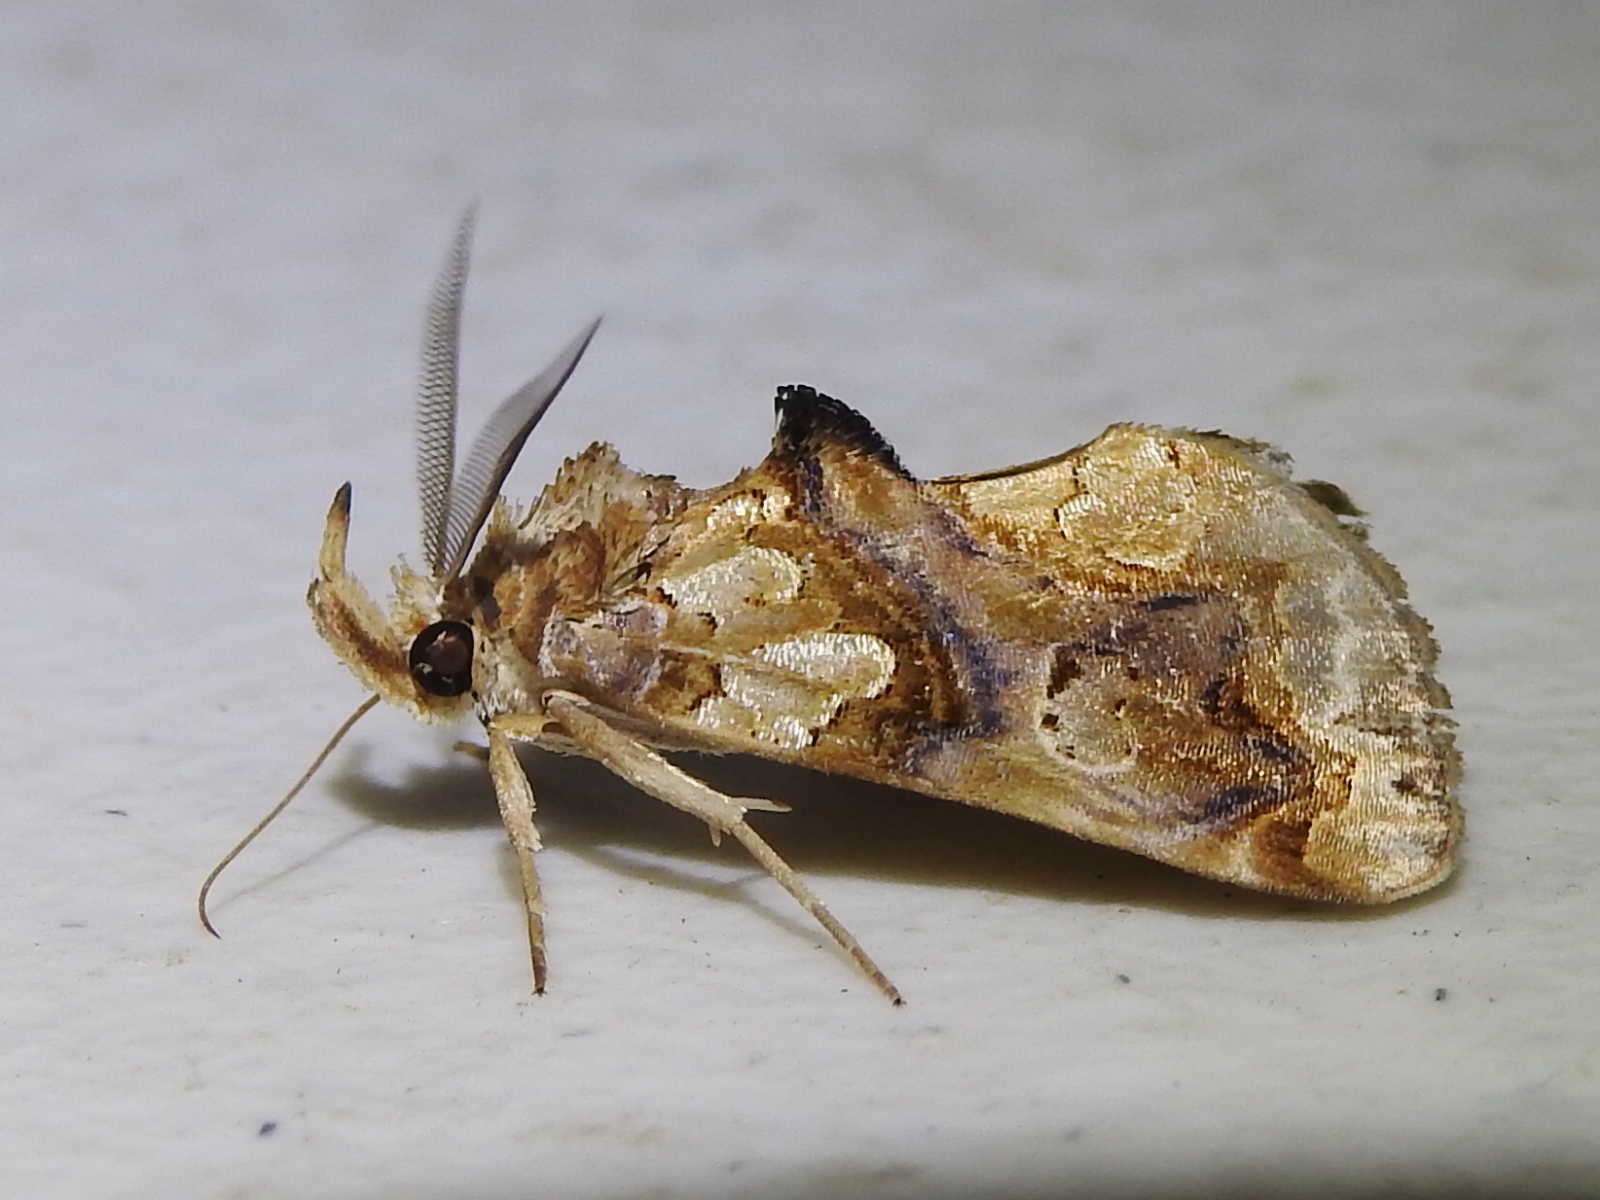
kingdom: Animalia
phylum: Arthropoda
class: Insecta
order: Lepidoptera
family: Erebidae
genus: Plusiodonta
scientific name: Plusiodonta compressipalpis
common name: Moonseed moth
